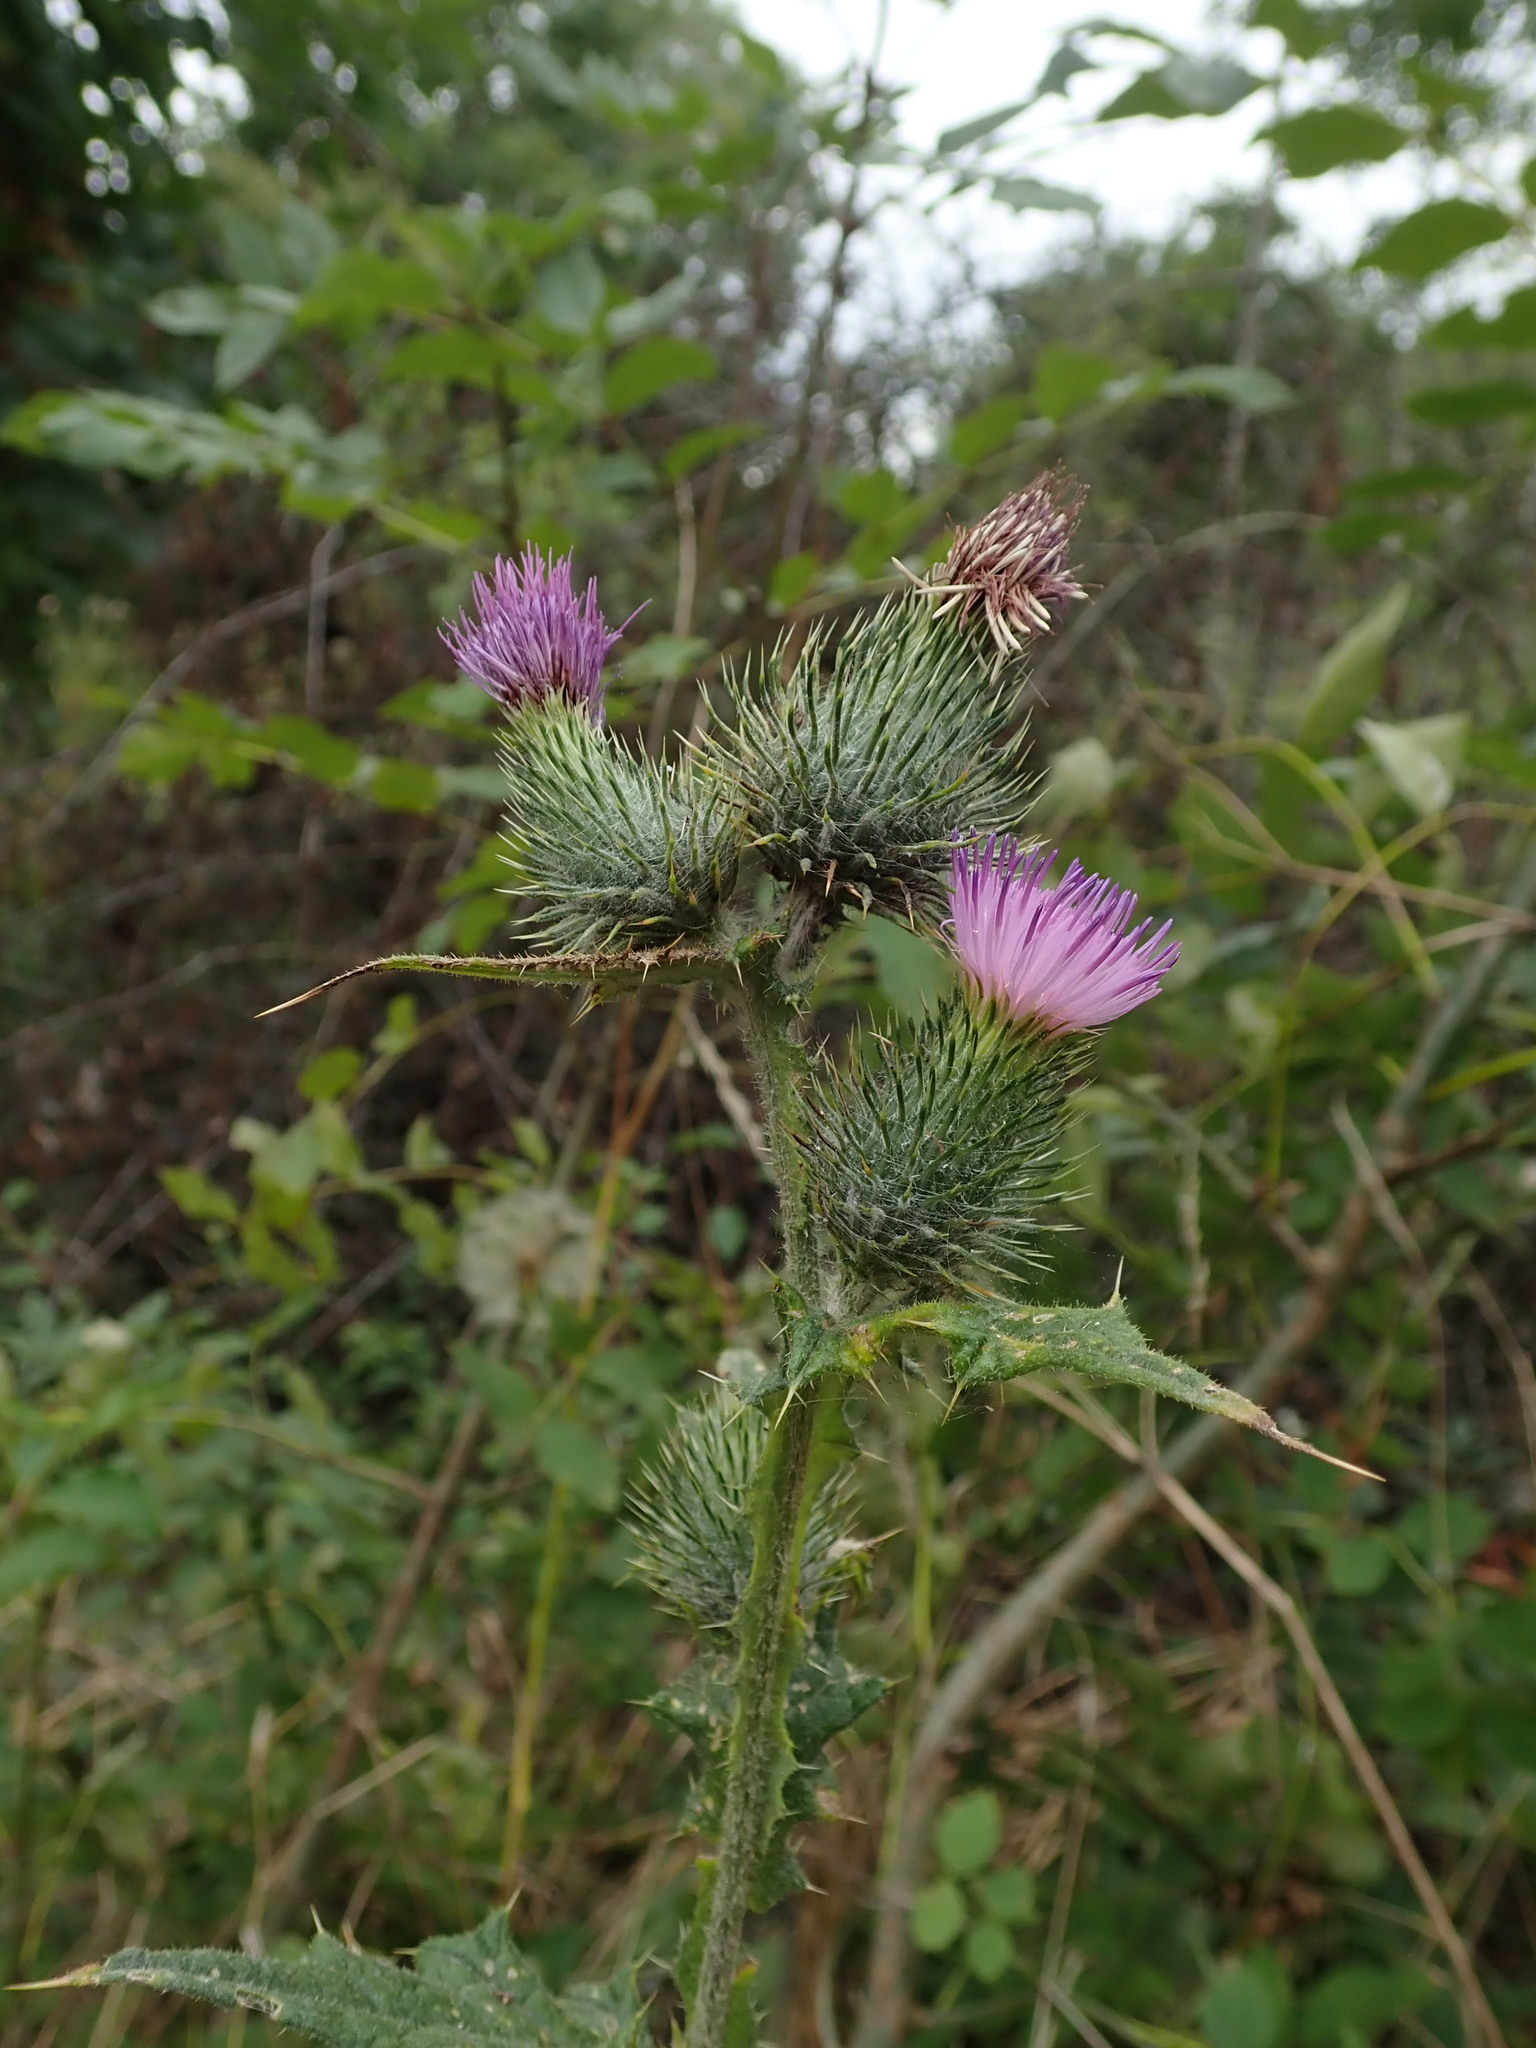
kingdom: Plantae
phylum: Tracheophyta
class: Magnoliopsida
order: Asterales
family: Asteraceae
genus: Cirsium
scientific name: Cirsium vulgare
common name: Bull thistle
